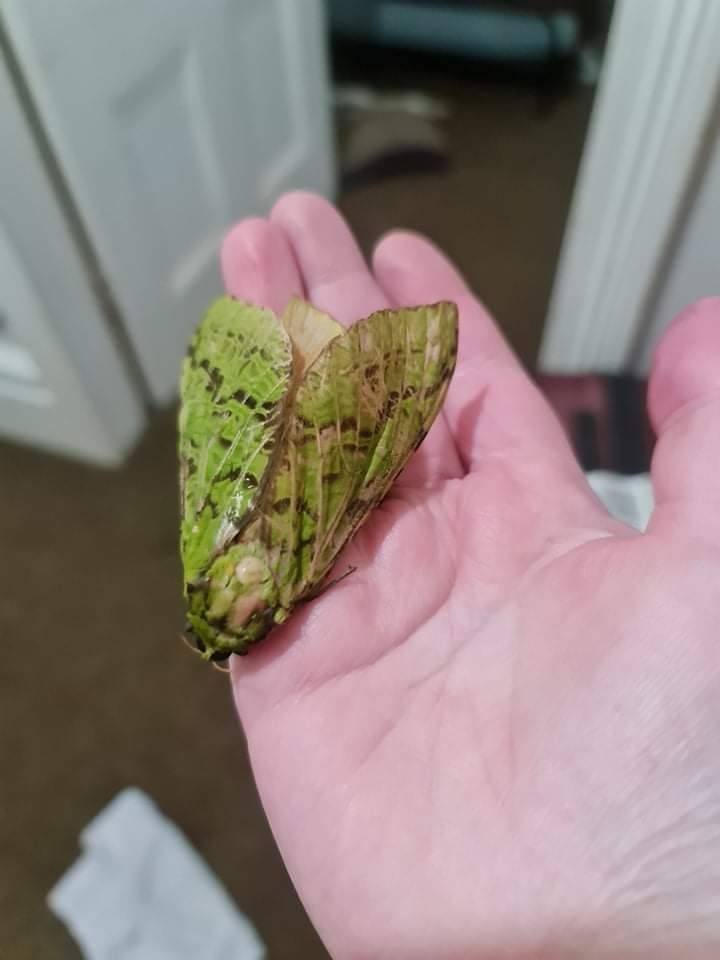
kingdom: Animalia
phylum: Arthropoda
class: Insecta
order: Lepidoptera
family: Hepialidae
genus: Aenetus
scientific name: Aenetus virescens
